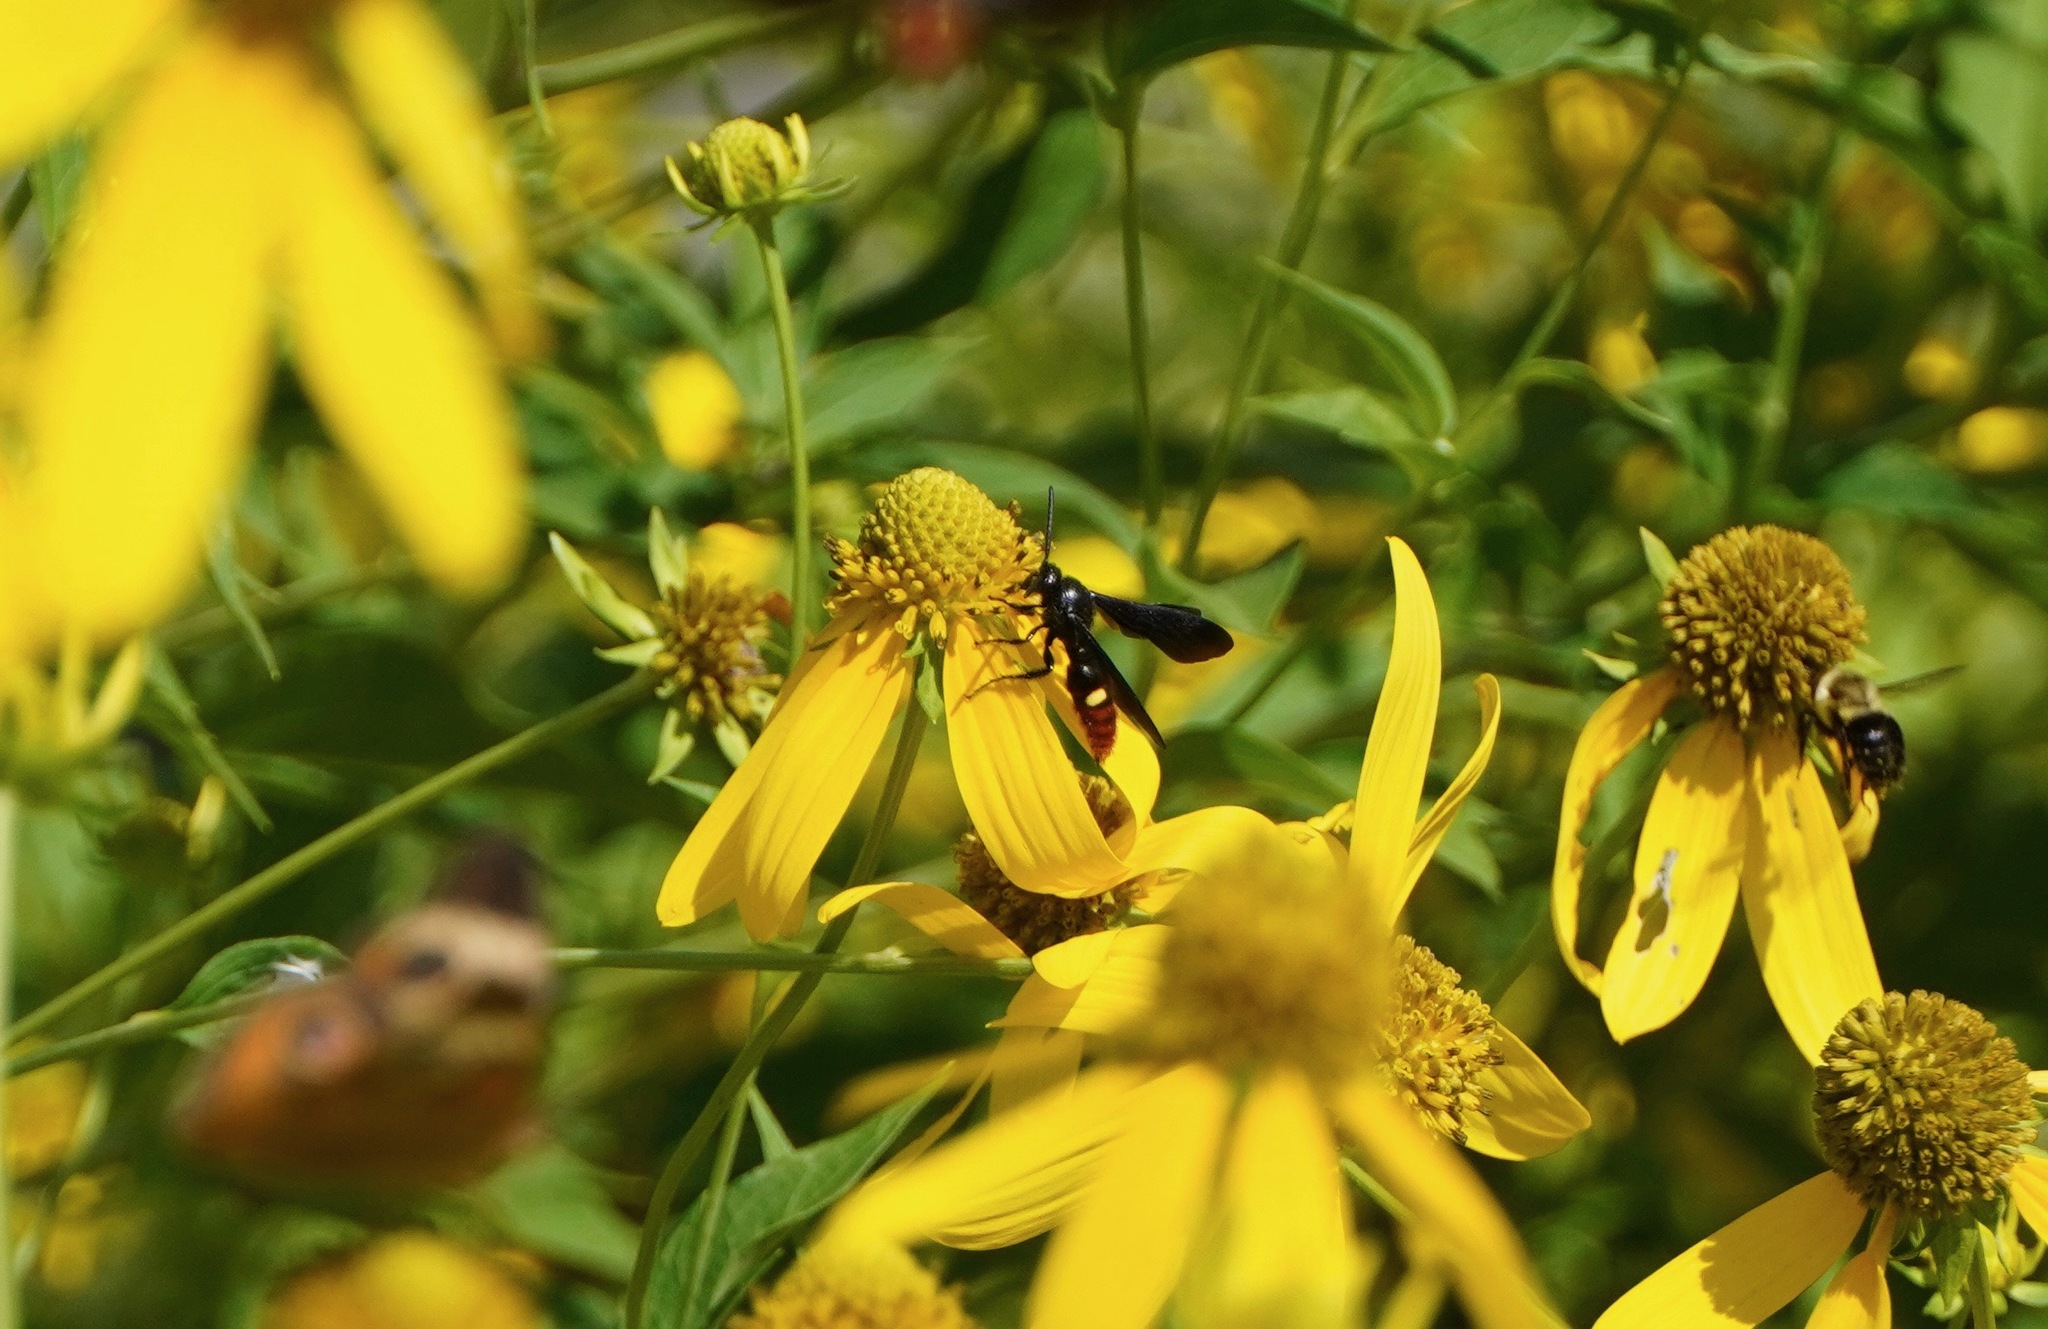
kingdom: Animalia
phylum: Arthropoda
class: Insecta
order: Hymenoptera
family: Scoliidae
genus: Scolia
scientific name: Scolia dubia
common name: Blue-winged scoliid wasp
